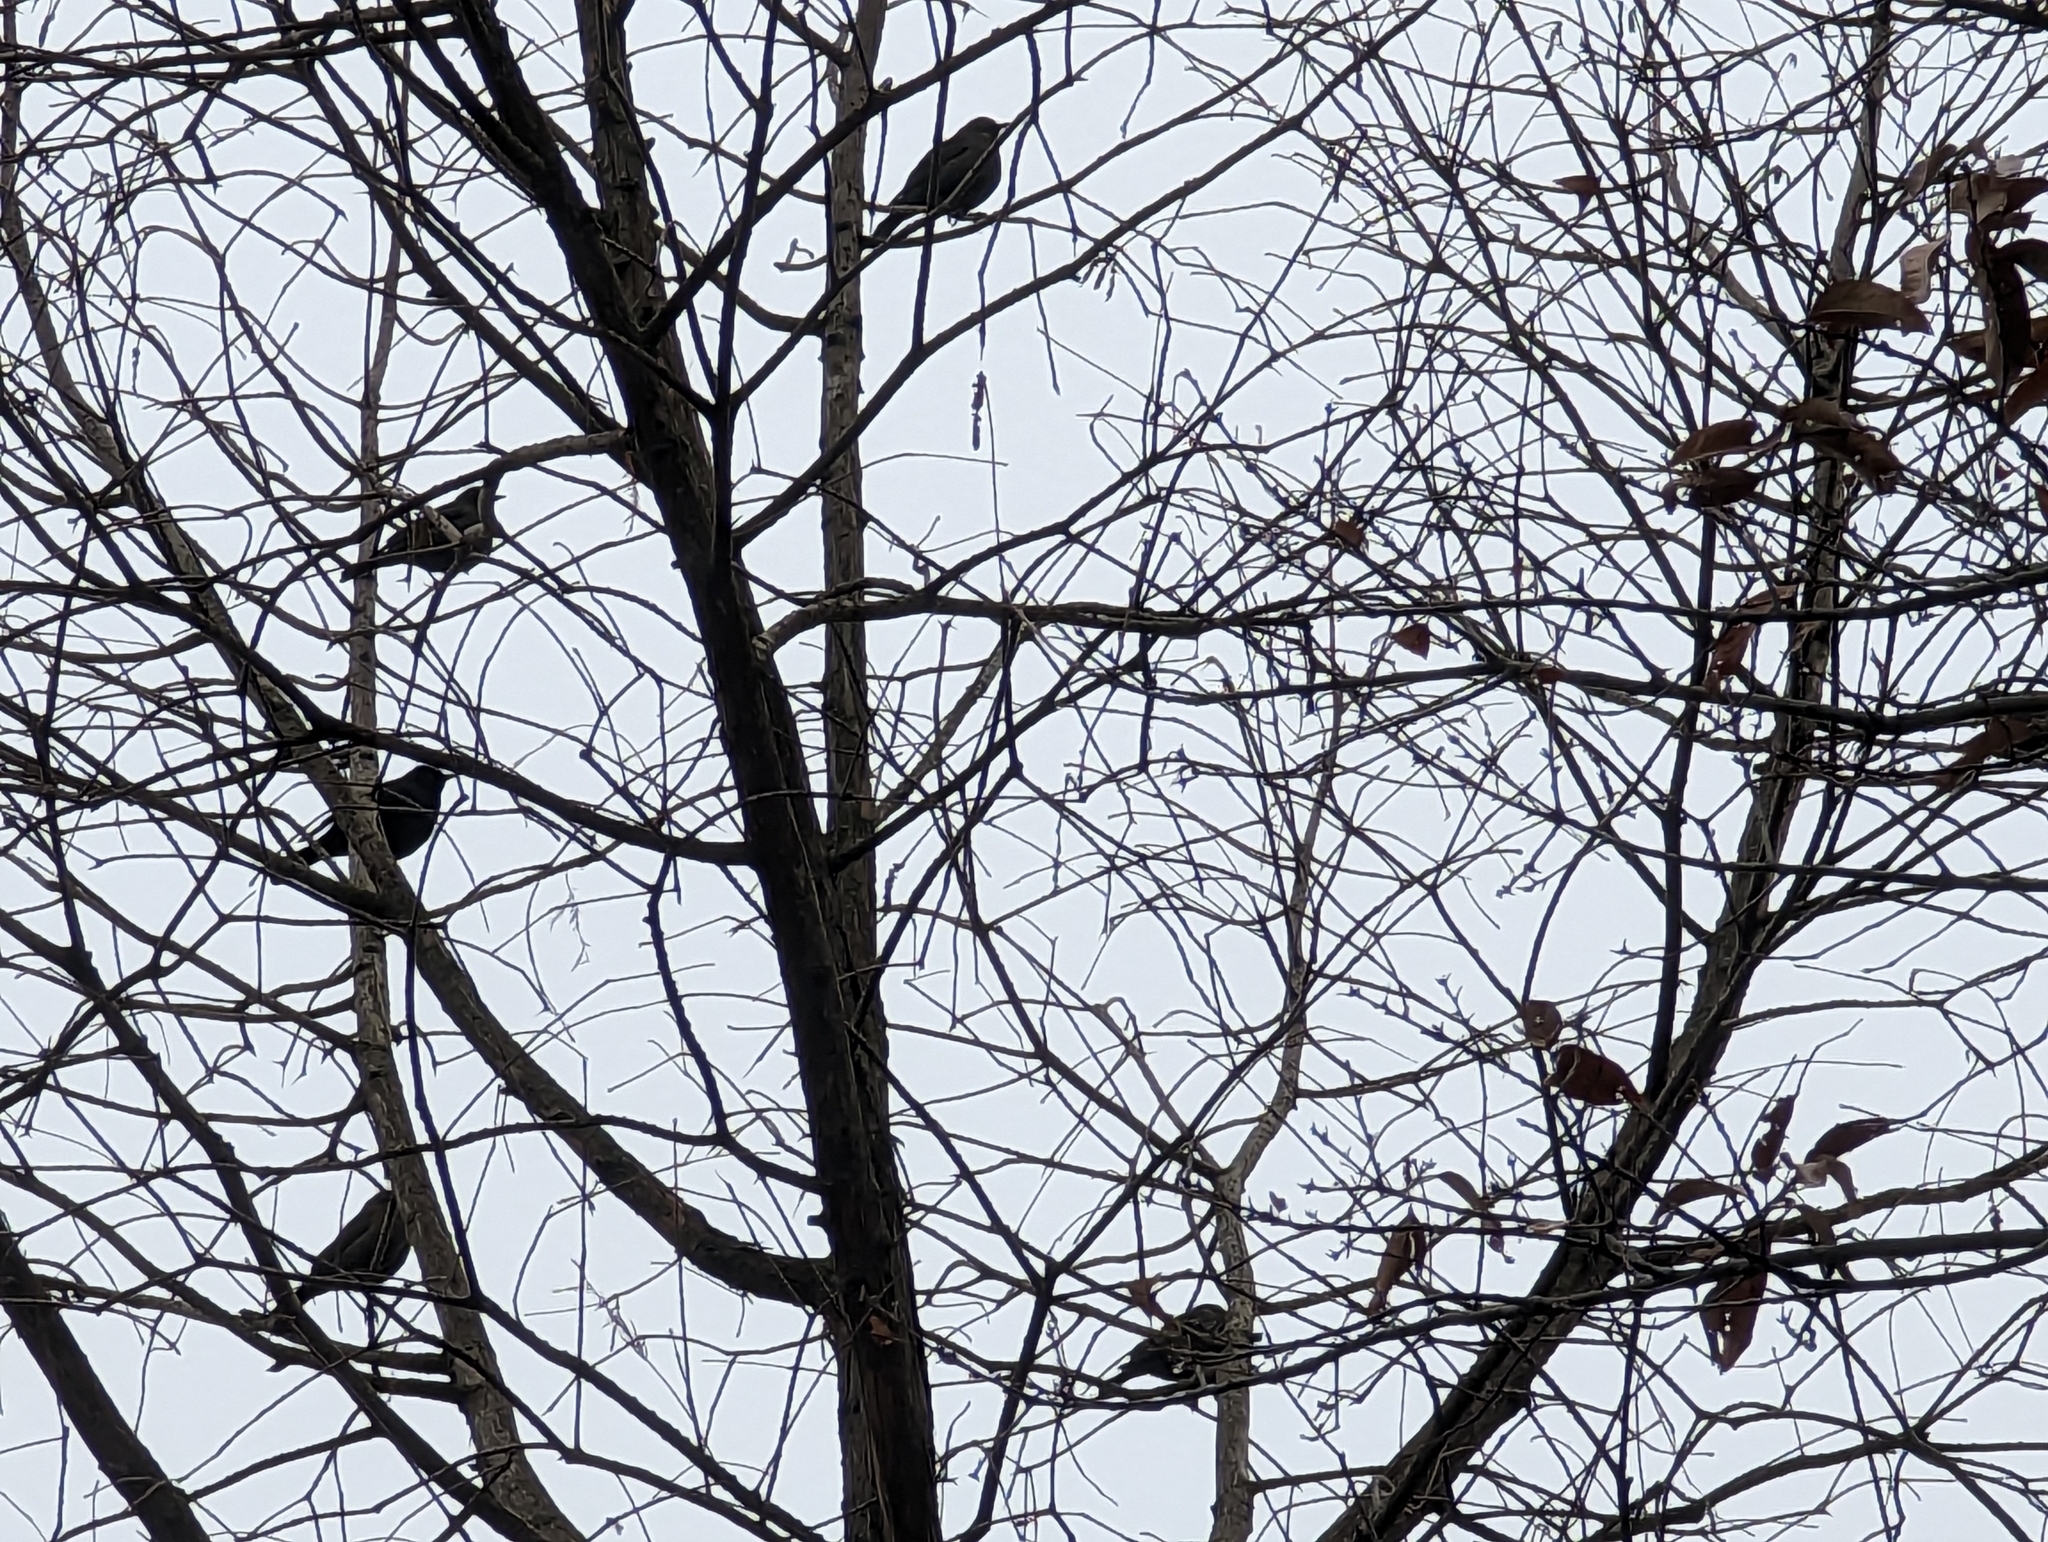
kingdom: Animalia
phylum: Chordata
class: Aves
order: Passeriformes
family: Icteridae
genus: Euphagus
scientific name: Euphagus carolinus
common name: Rusty blackbird
